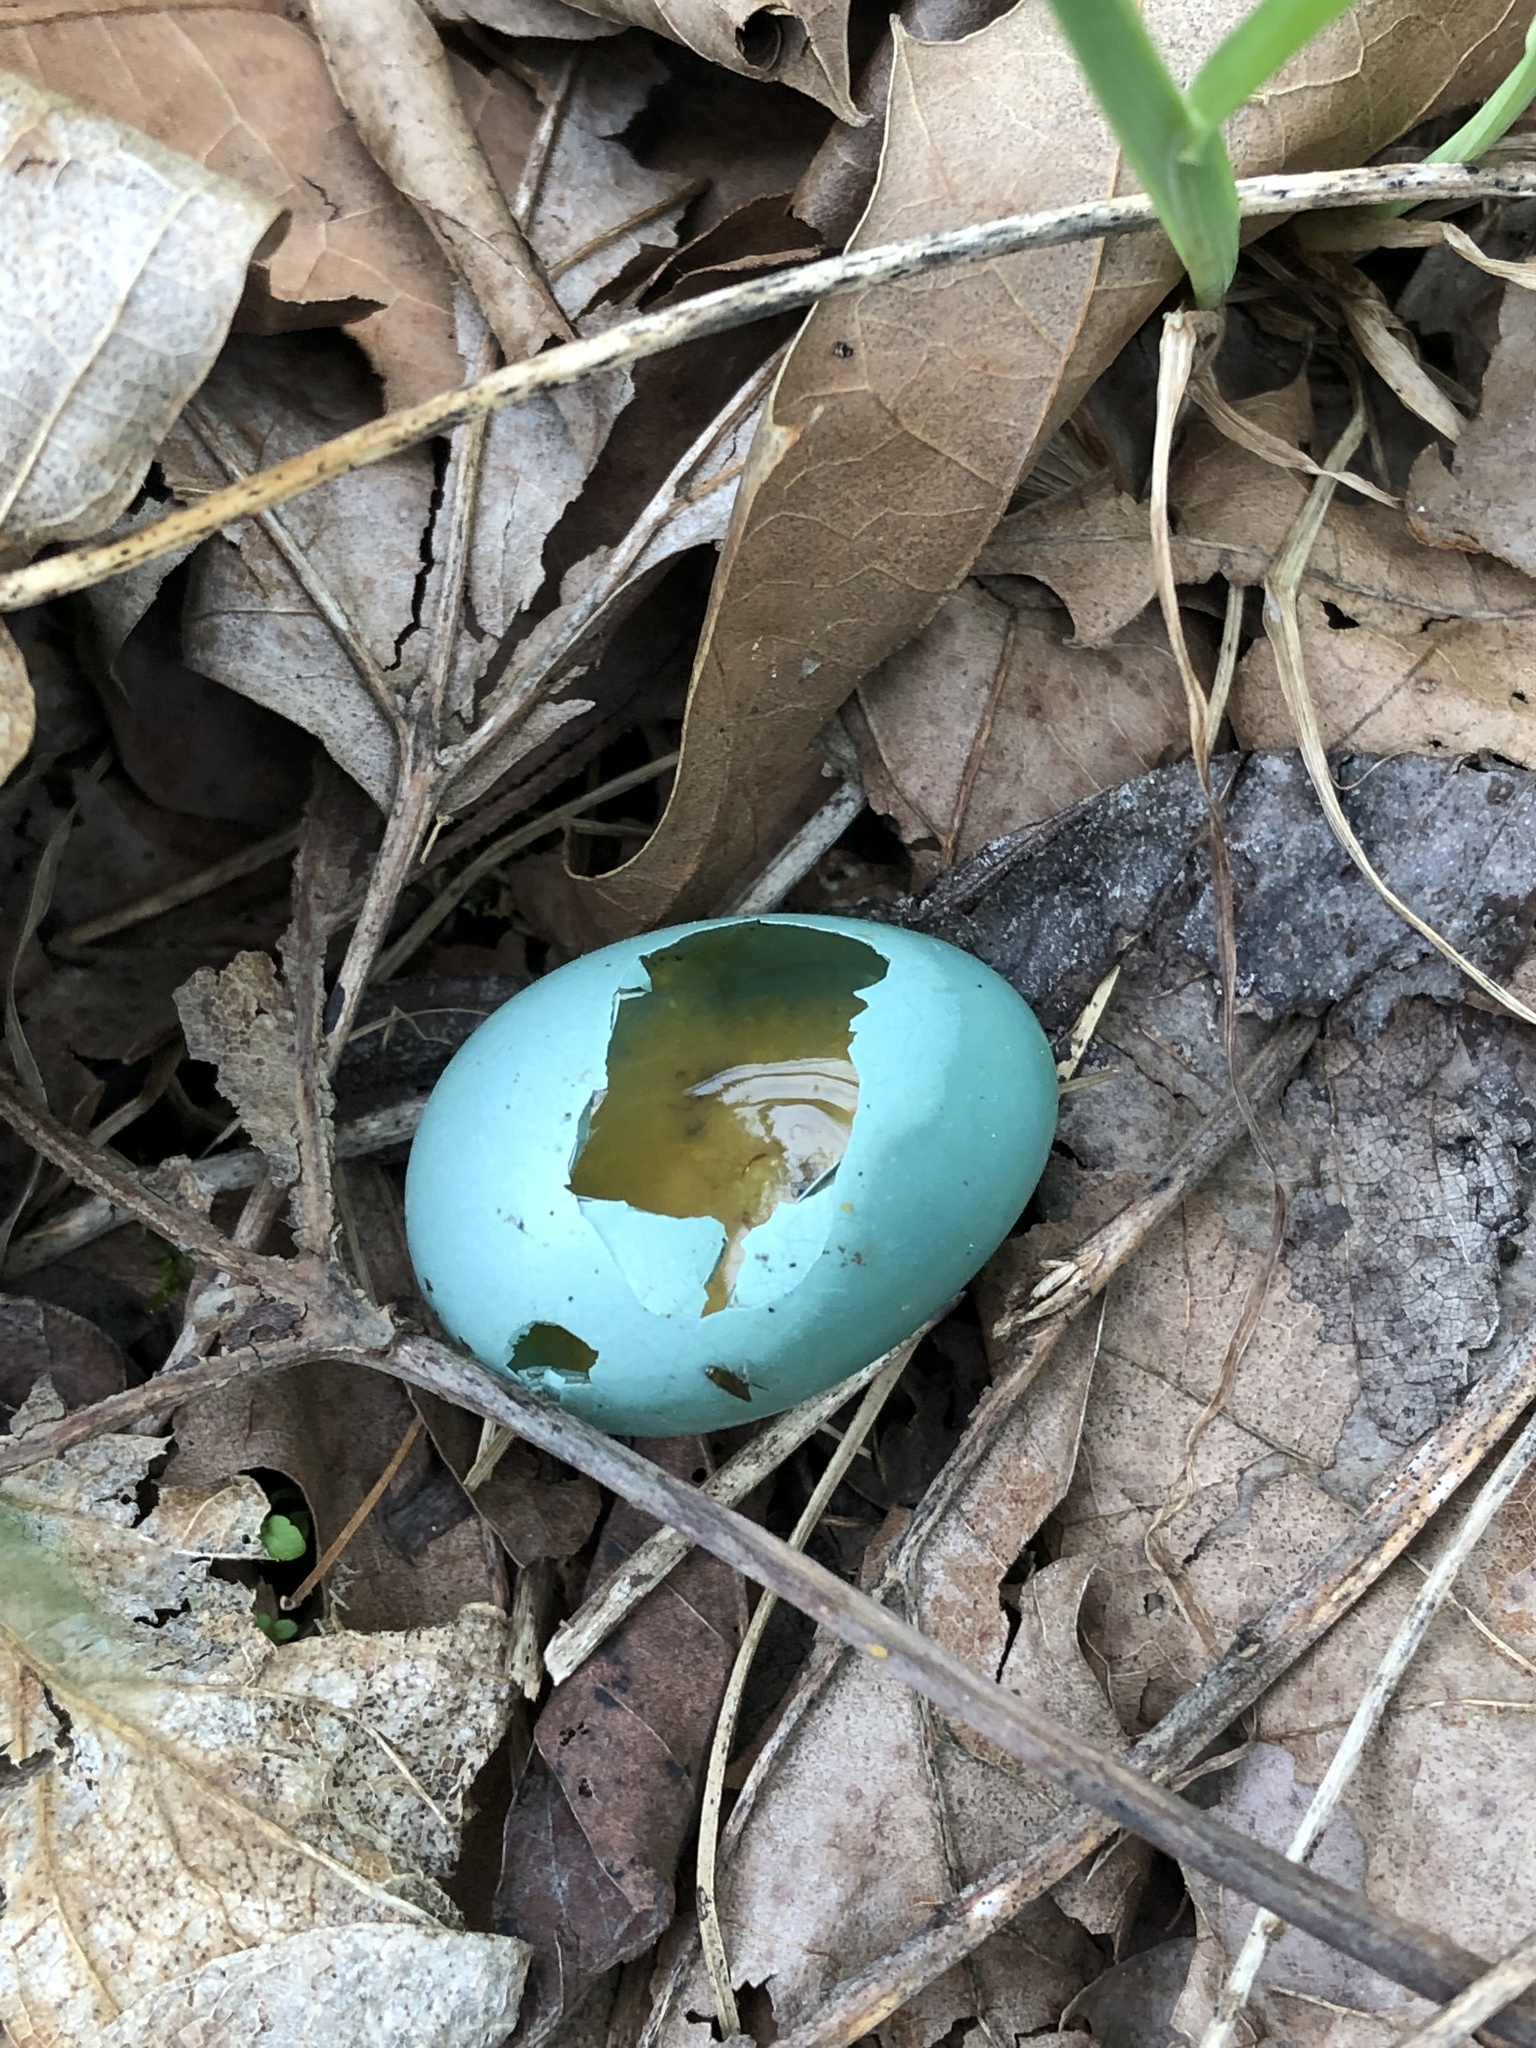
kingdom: Animalia
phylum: Chordata
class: Aves
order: Passeriformes
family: Turdidae
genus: Turdus
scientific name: Turdus migratorius
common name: American robin
